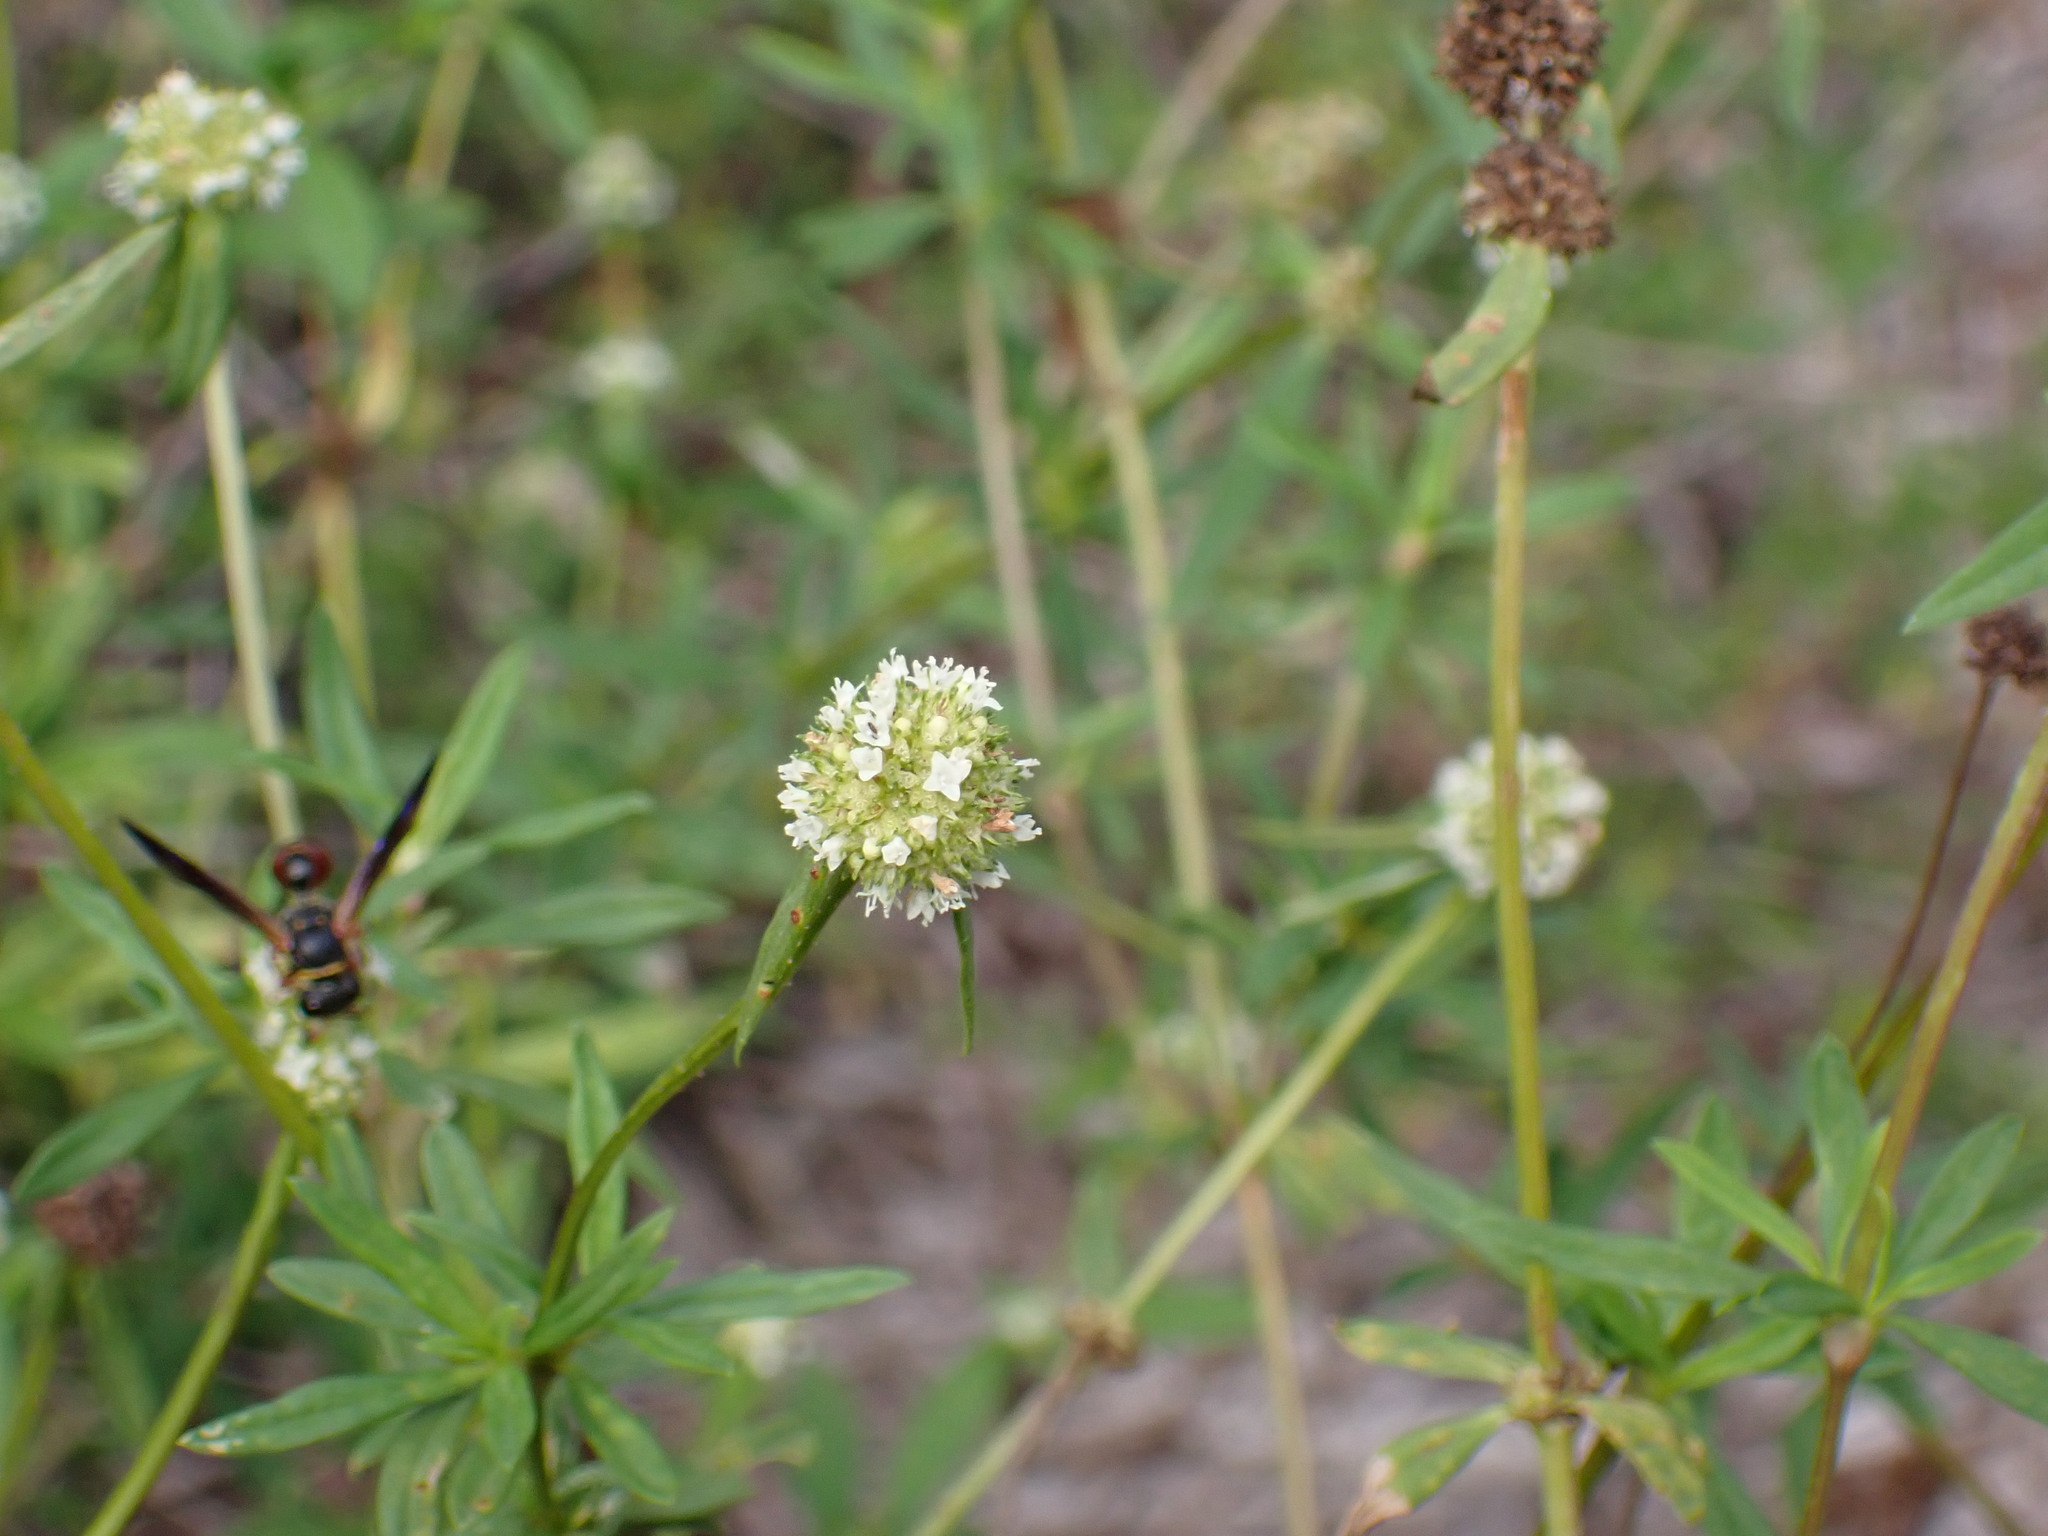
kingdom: Plantae
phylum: Tracheophyta
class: Magnoliopsida
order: Gentianales
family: Rubiaceae
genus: Spermacoce
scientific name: Spermacoce verticillata
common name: Shrubby false buttonweed
